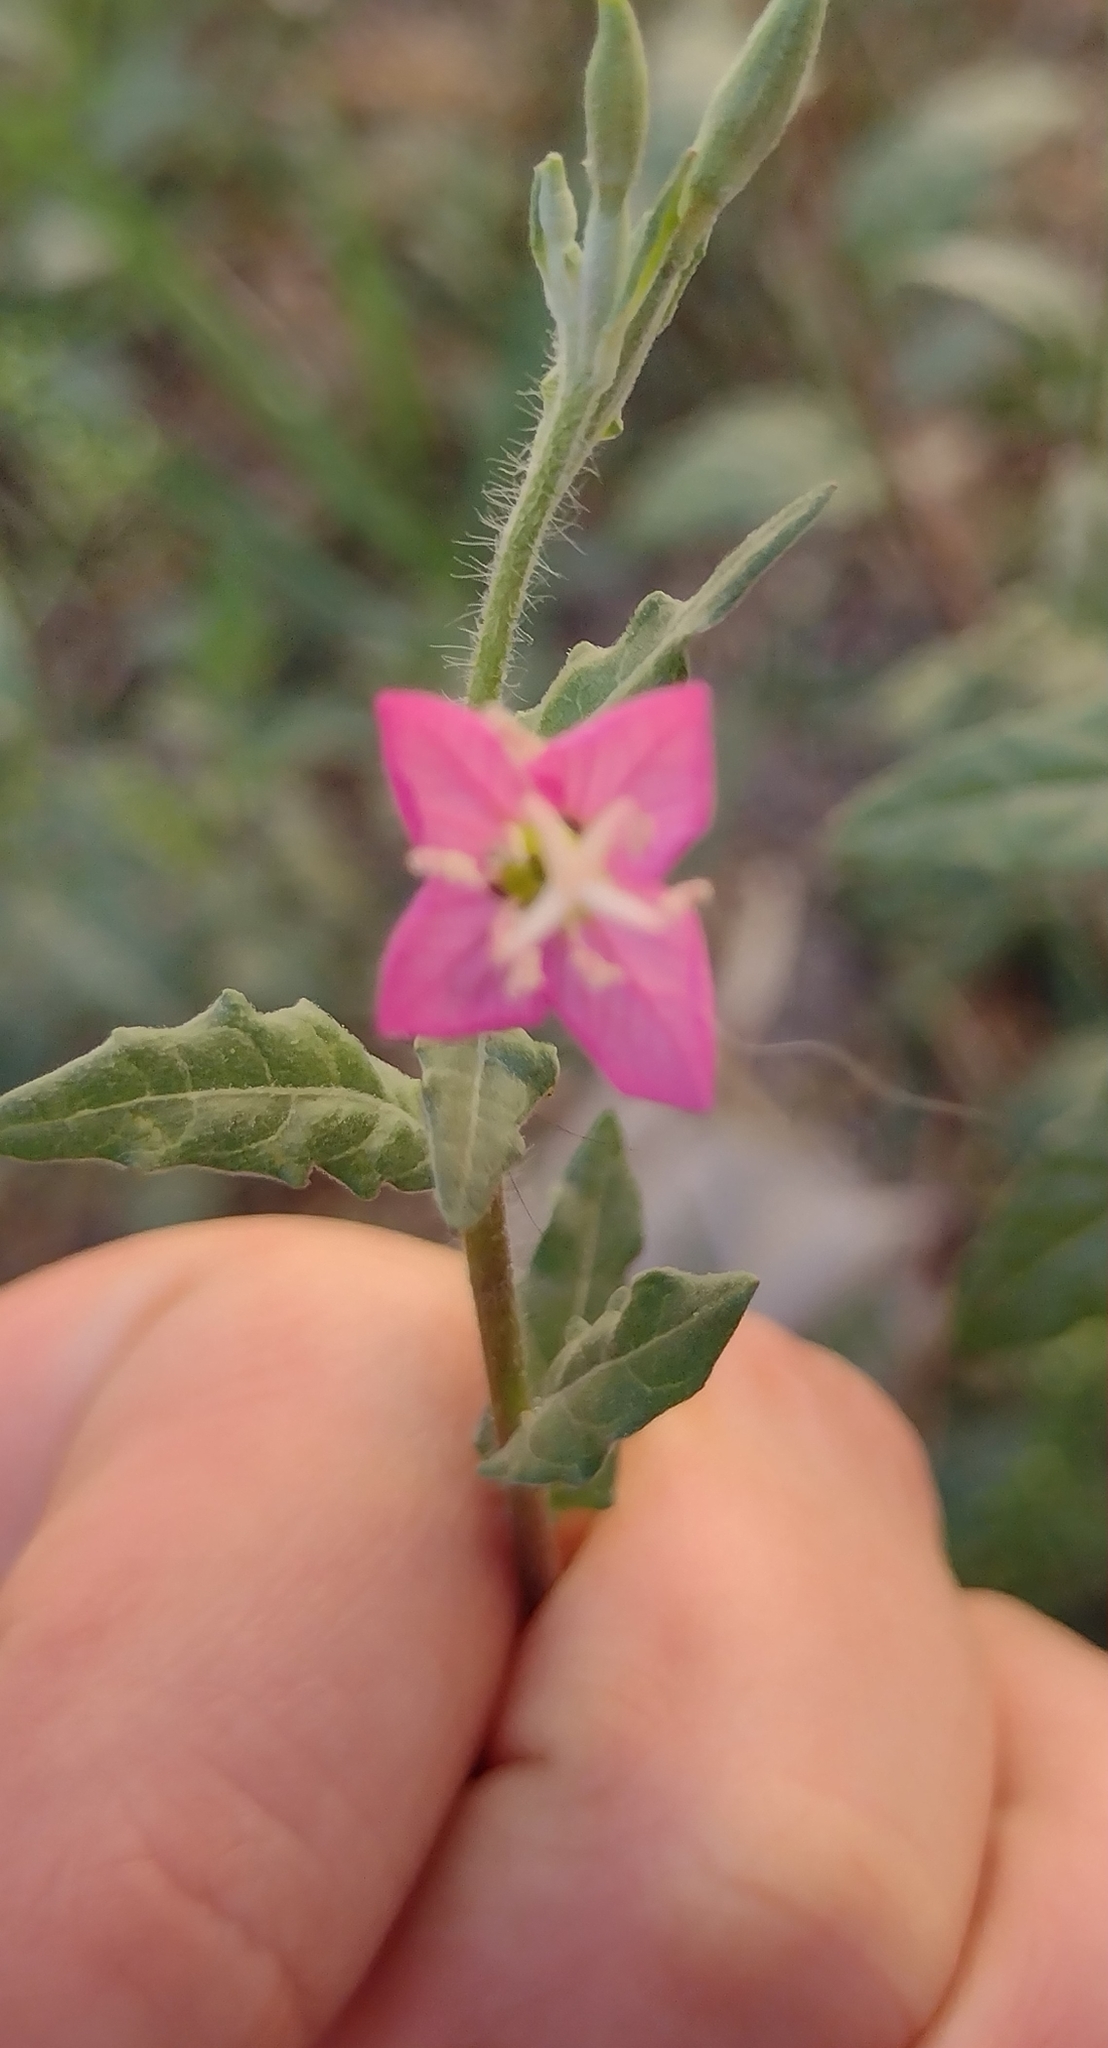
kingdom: Plantae
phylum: Tracheophyta
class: Magnoliopsida
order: Myrtales
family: Onagraceae
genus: Oenothera
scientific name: Oenothera rosea
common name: Rosy evening-primrose
